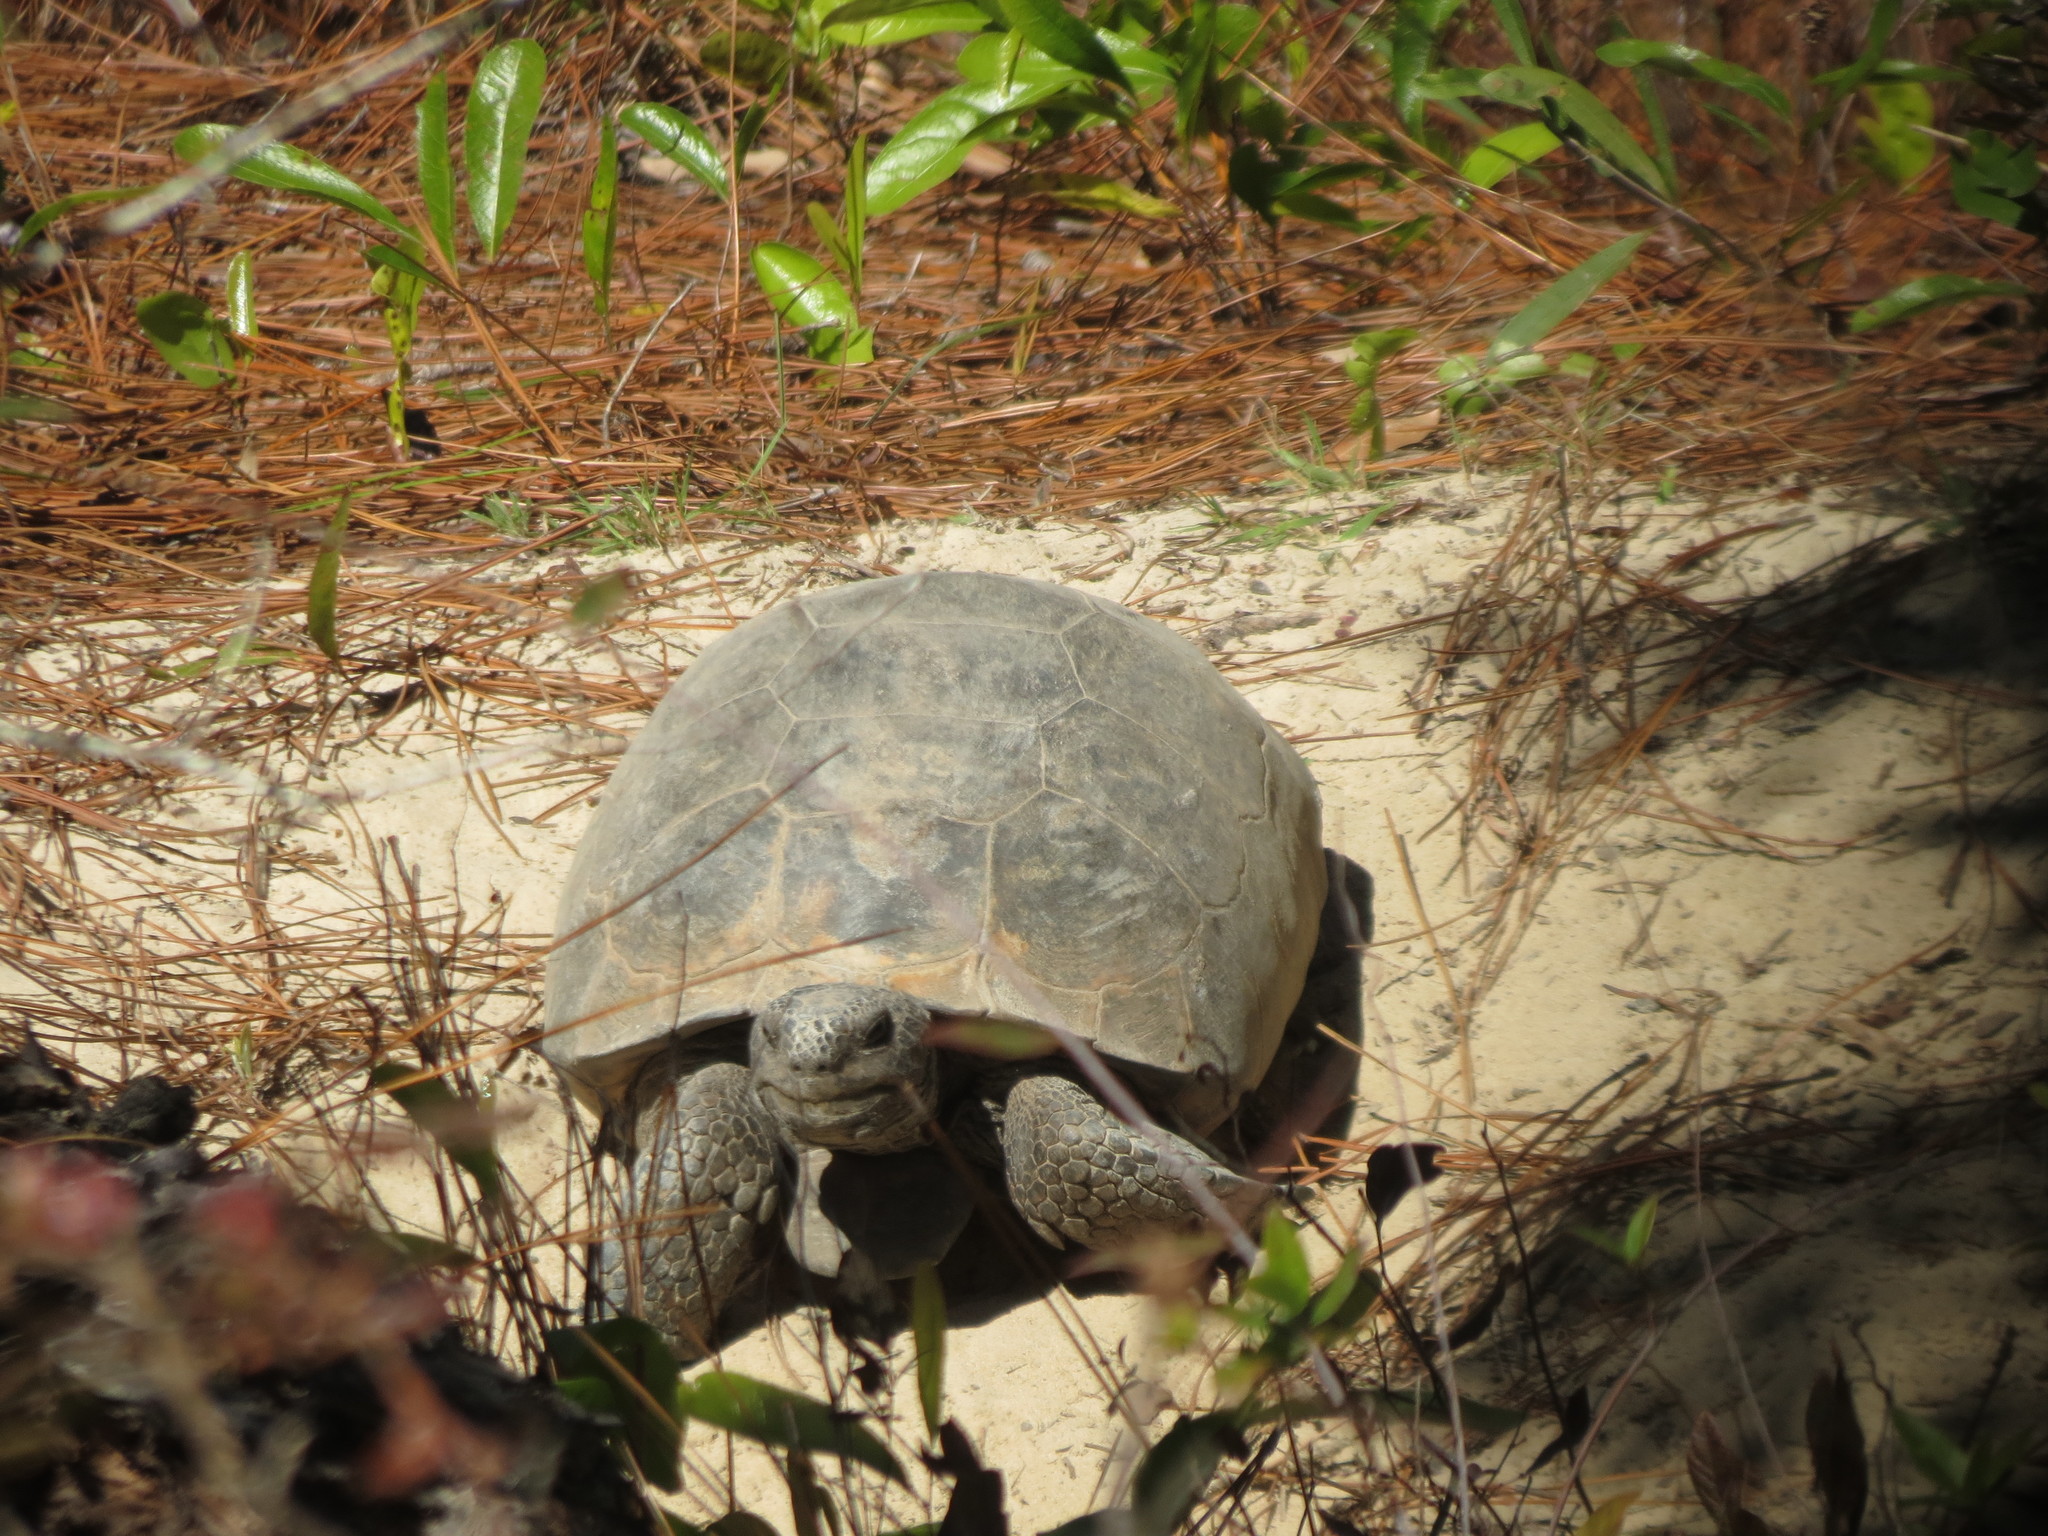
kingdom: Animalia
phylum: Chordata
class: Testudines
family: Testudinidae
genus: Gopherus
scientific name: Gopherus polyphemus
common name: Florida gopher tortoise
